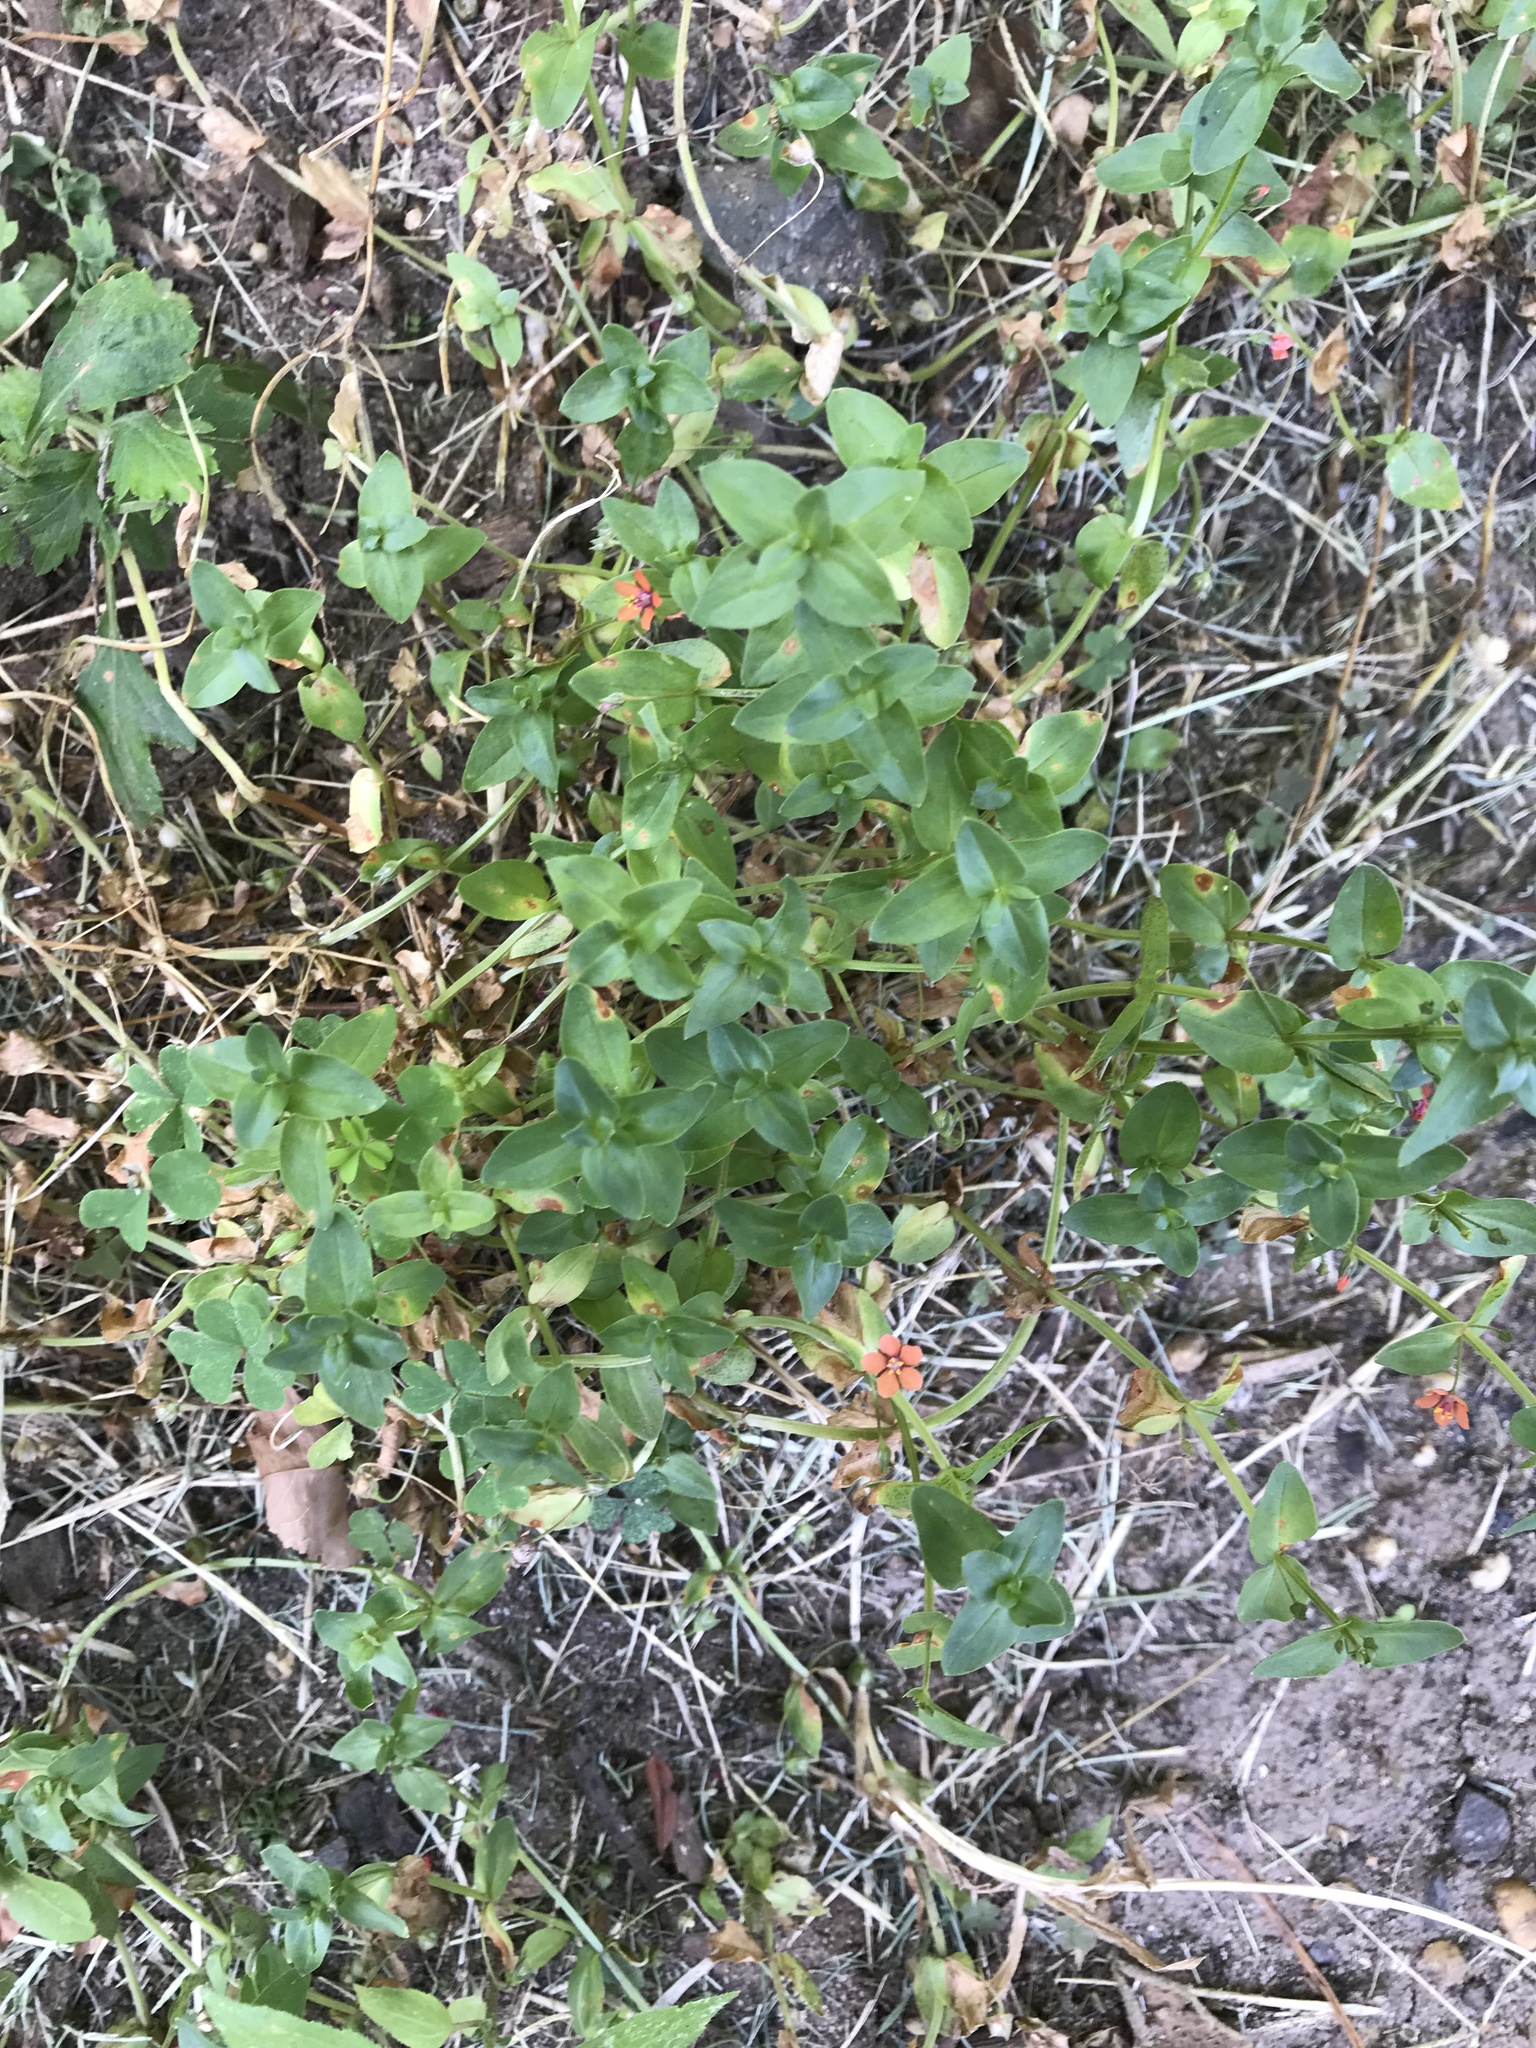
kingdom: Plantae
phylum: Tracheophyta
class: Magnoliopsida
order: Ericales
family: Primulaceae
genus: Lysimachia
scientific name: Lysimachia arvensis
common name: Scarlet pimpernel
